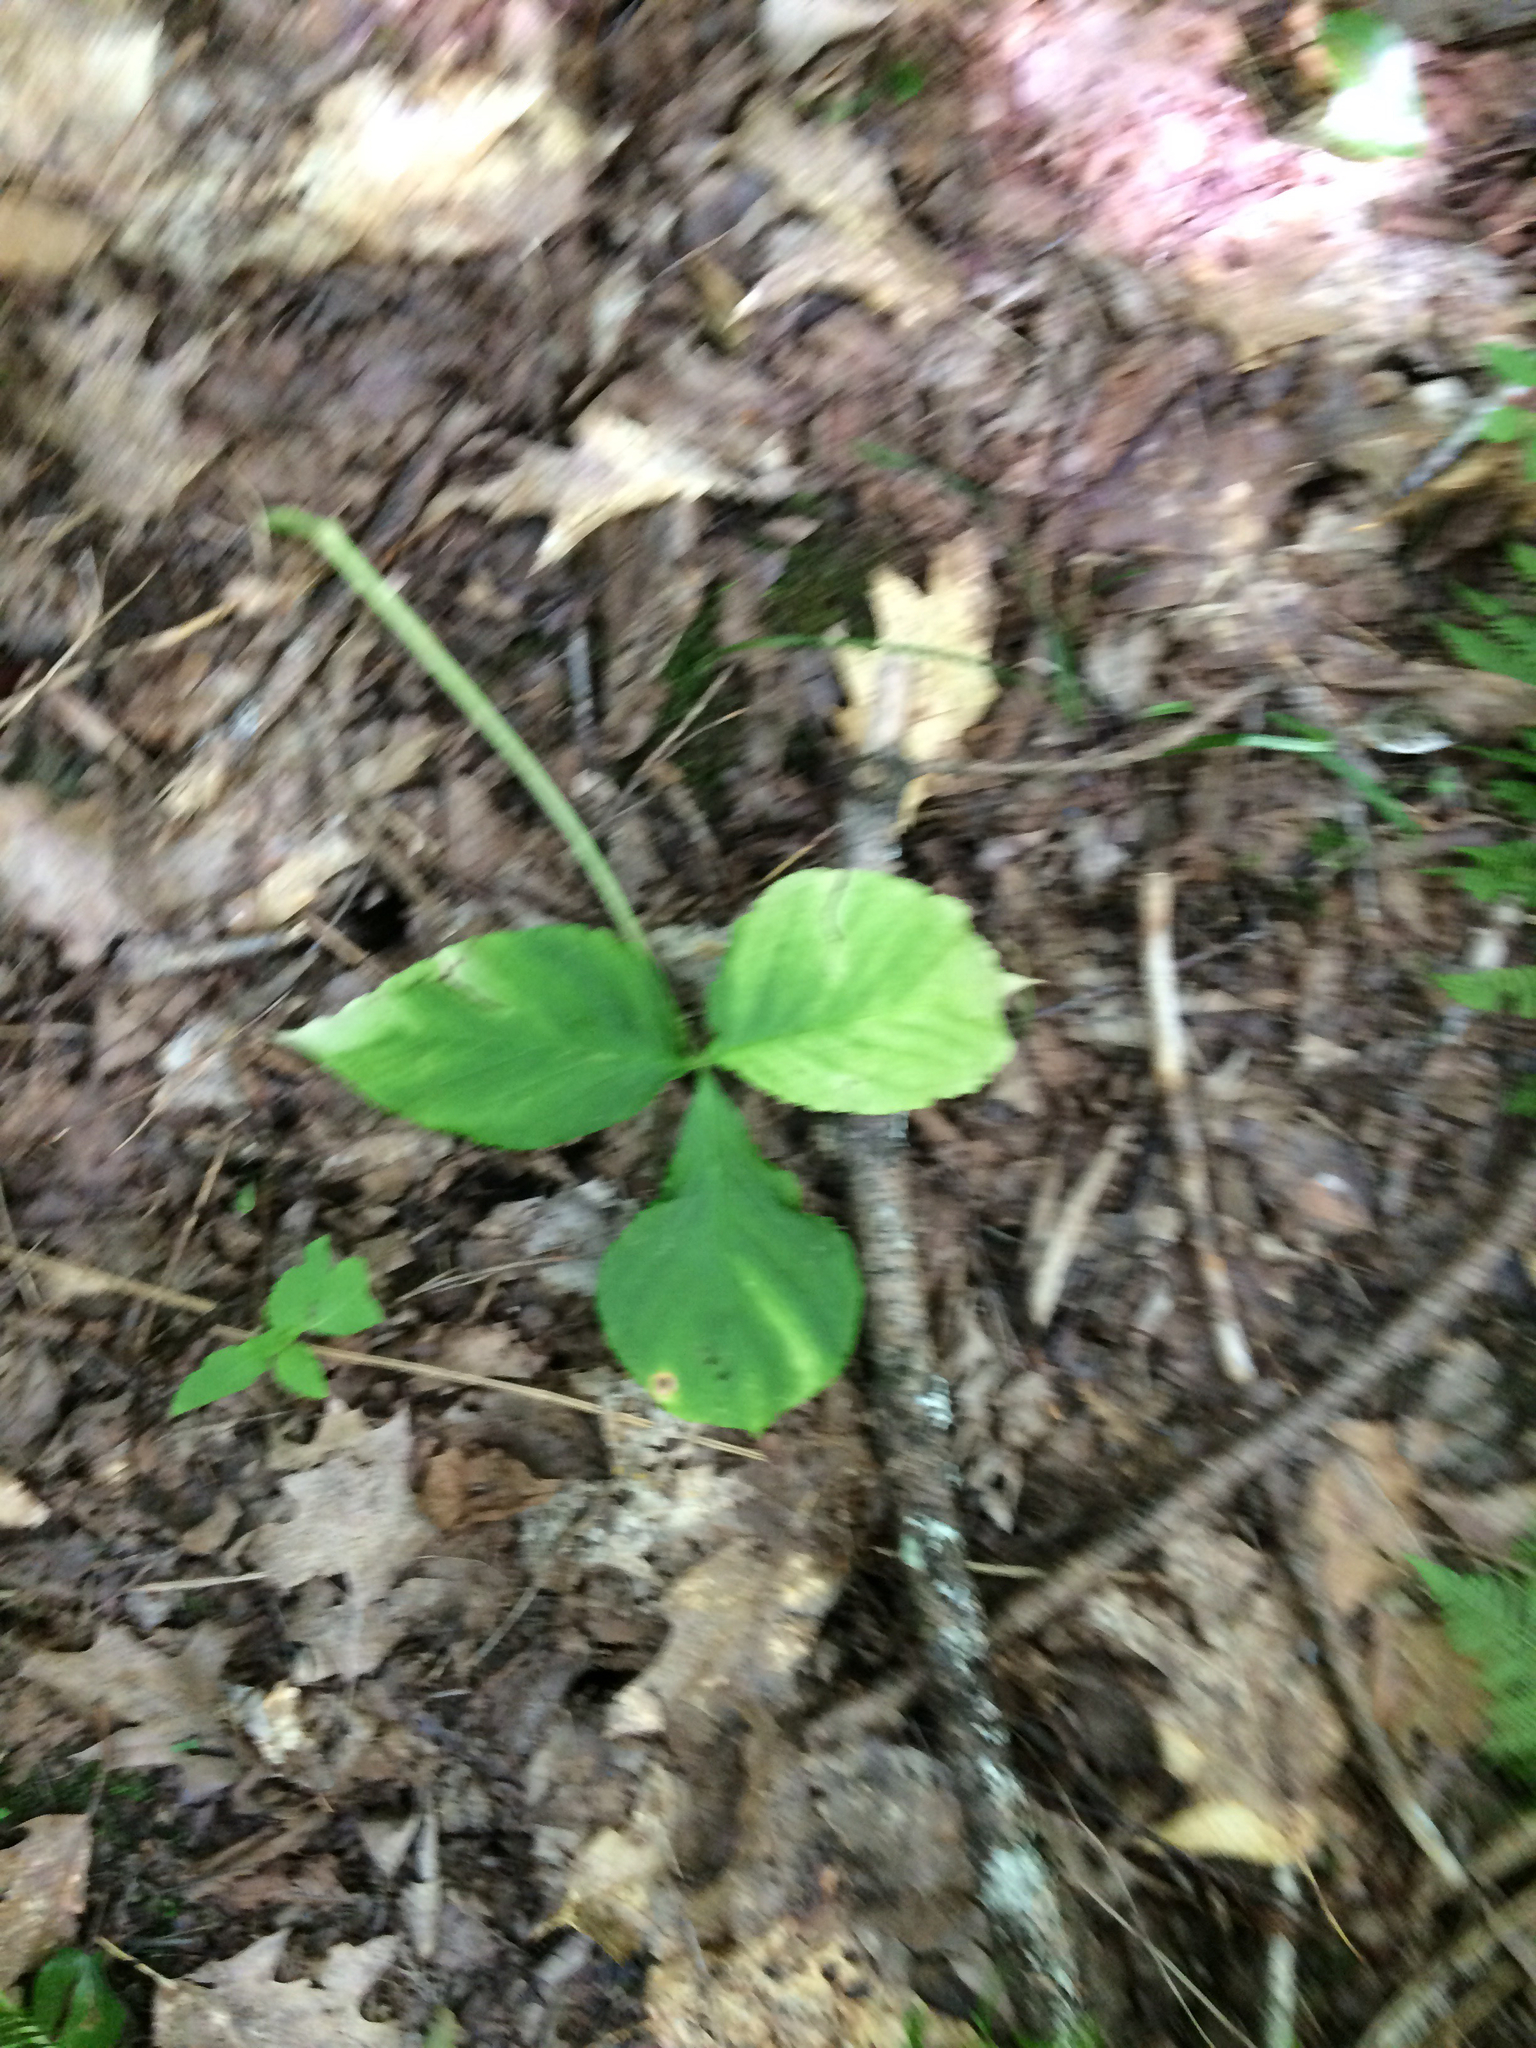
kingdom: Plantae
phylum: Tracheophyta
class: Liliopsida
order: Alismatales
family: Araceae
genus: Arisaema
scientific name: Arisaema triphyllum
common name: Jack-in-the-pulpit
